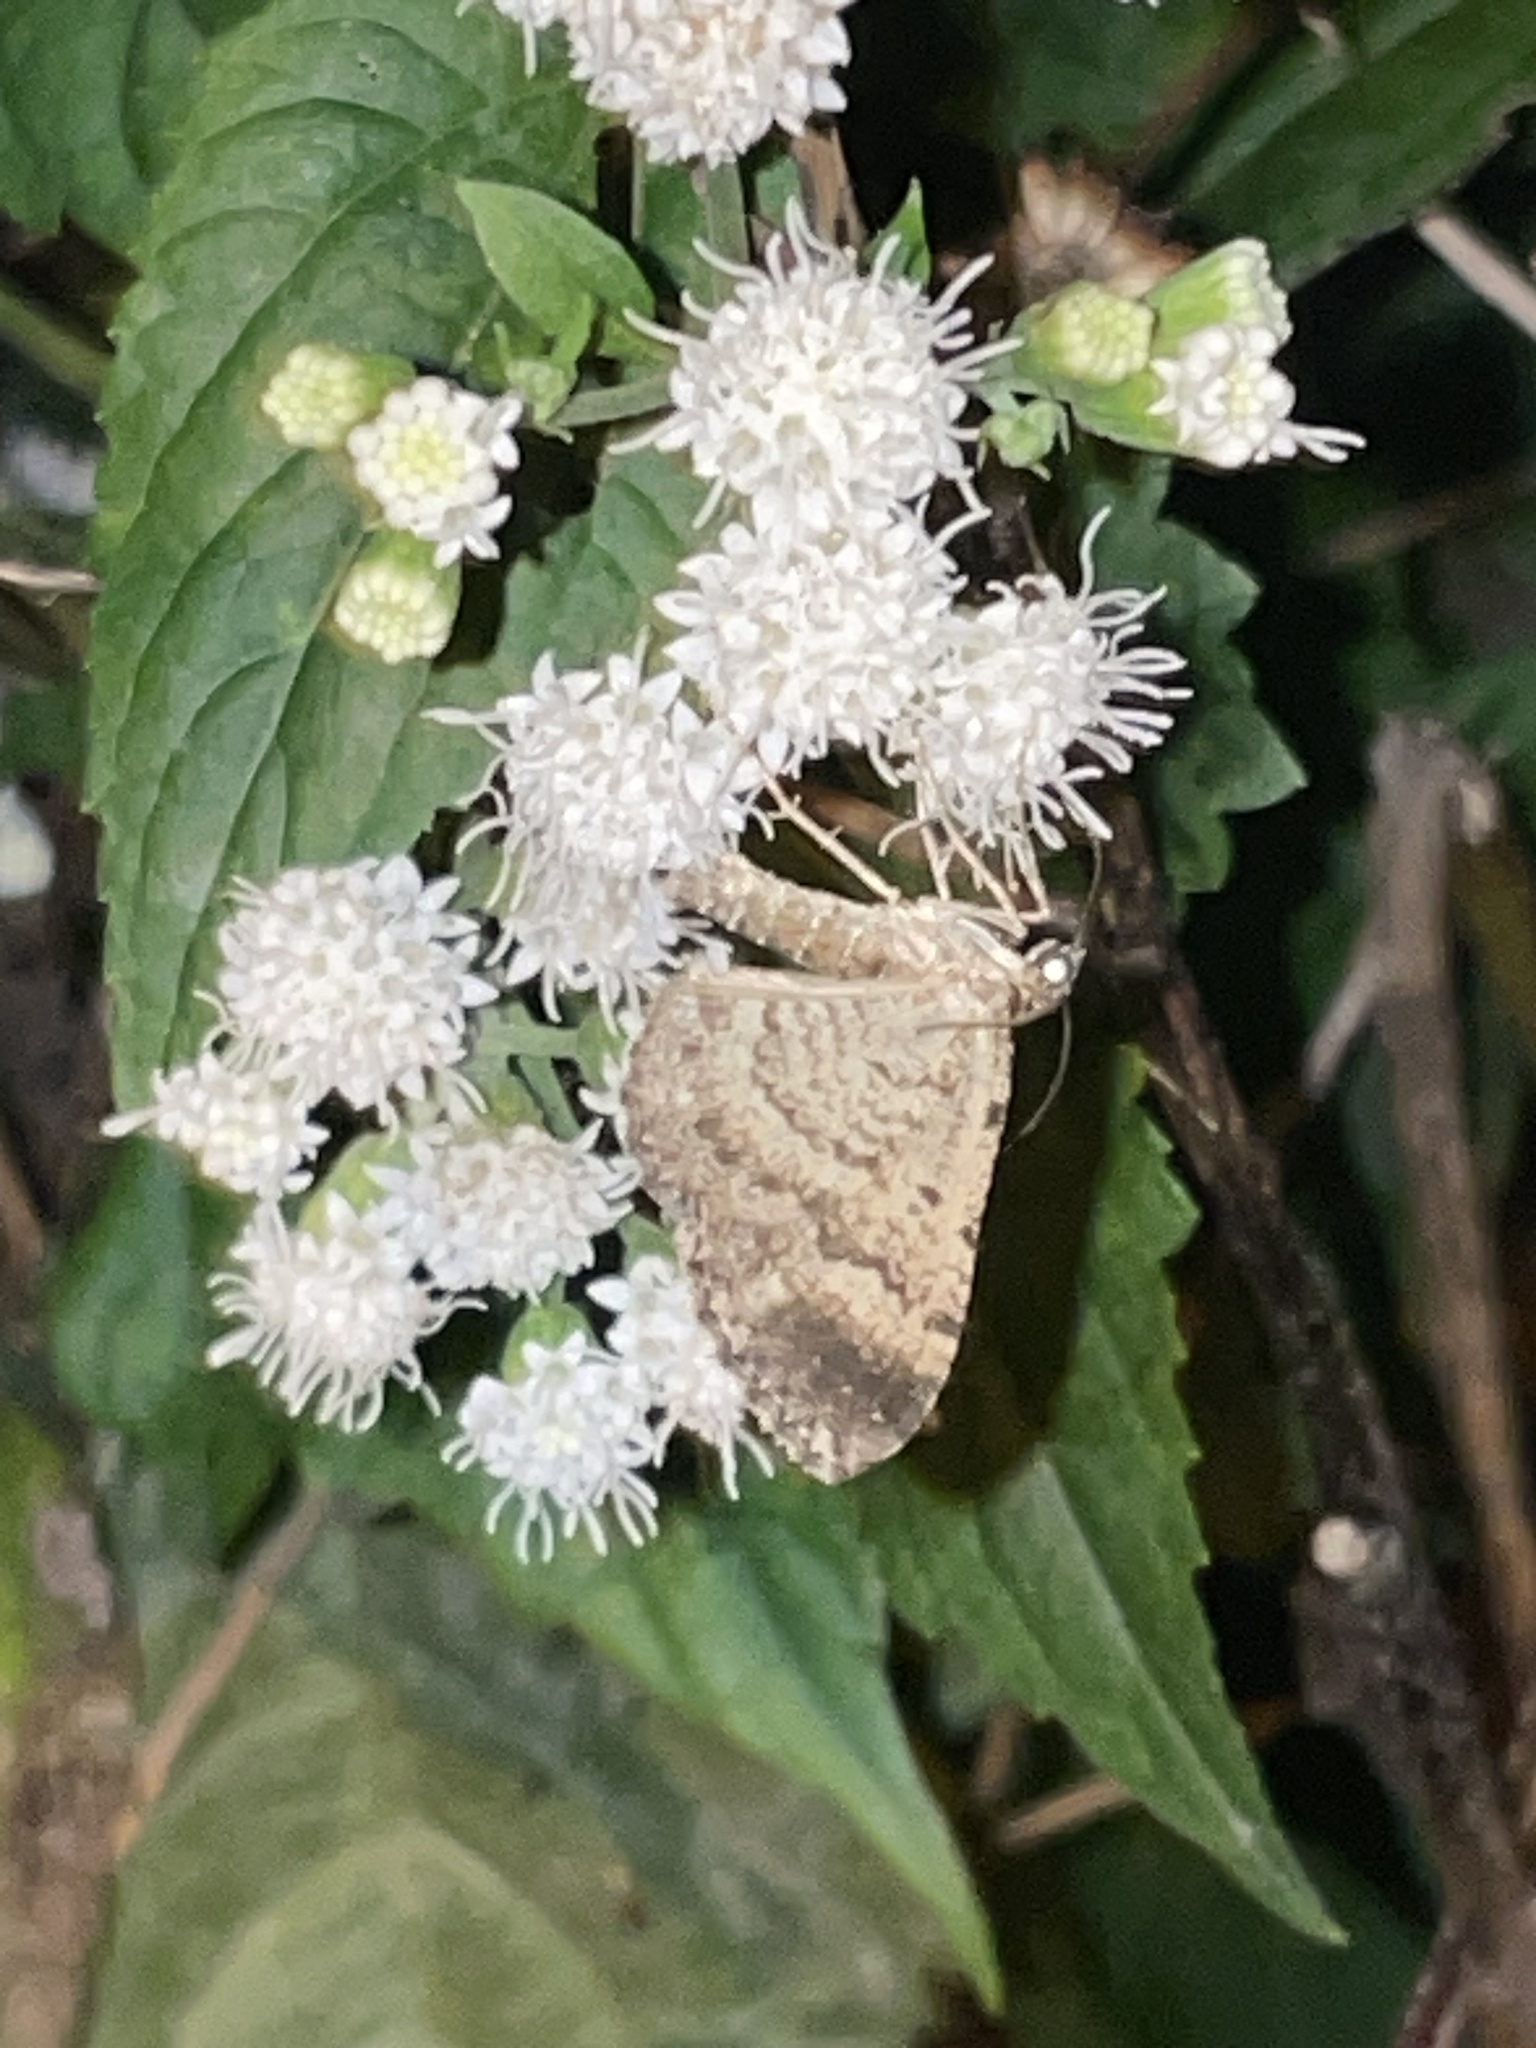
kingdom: Animalia
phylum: Arthropoda
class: Insecta
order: Lepidoptera
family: Geometridae
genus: Disclisioprocta
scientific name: Disclisioprocta stellata
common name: Somber carpet
